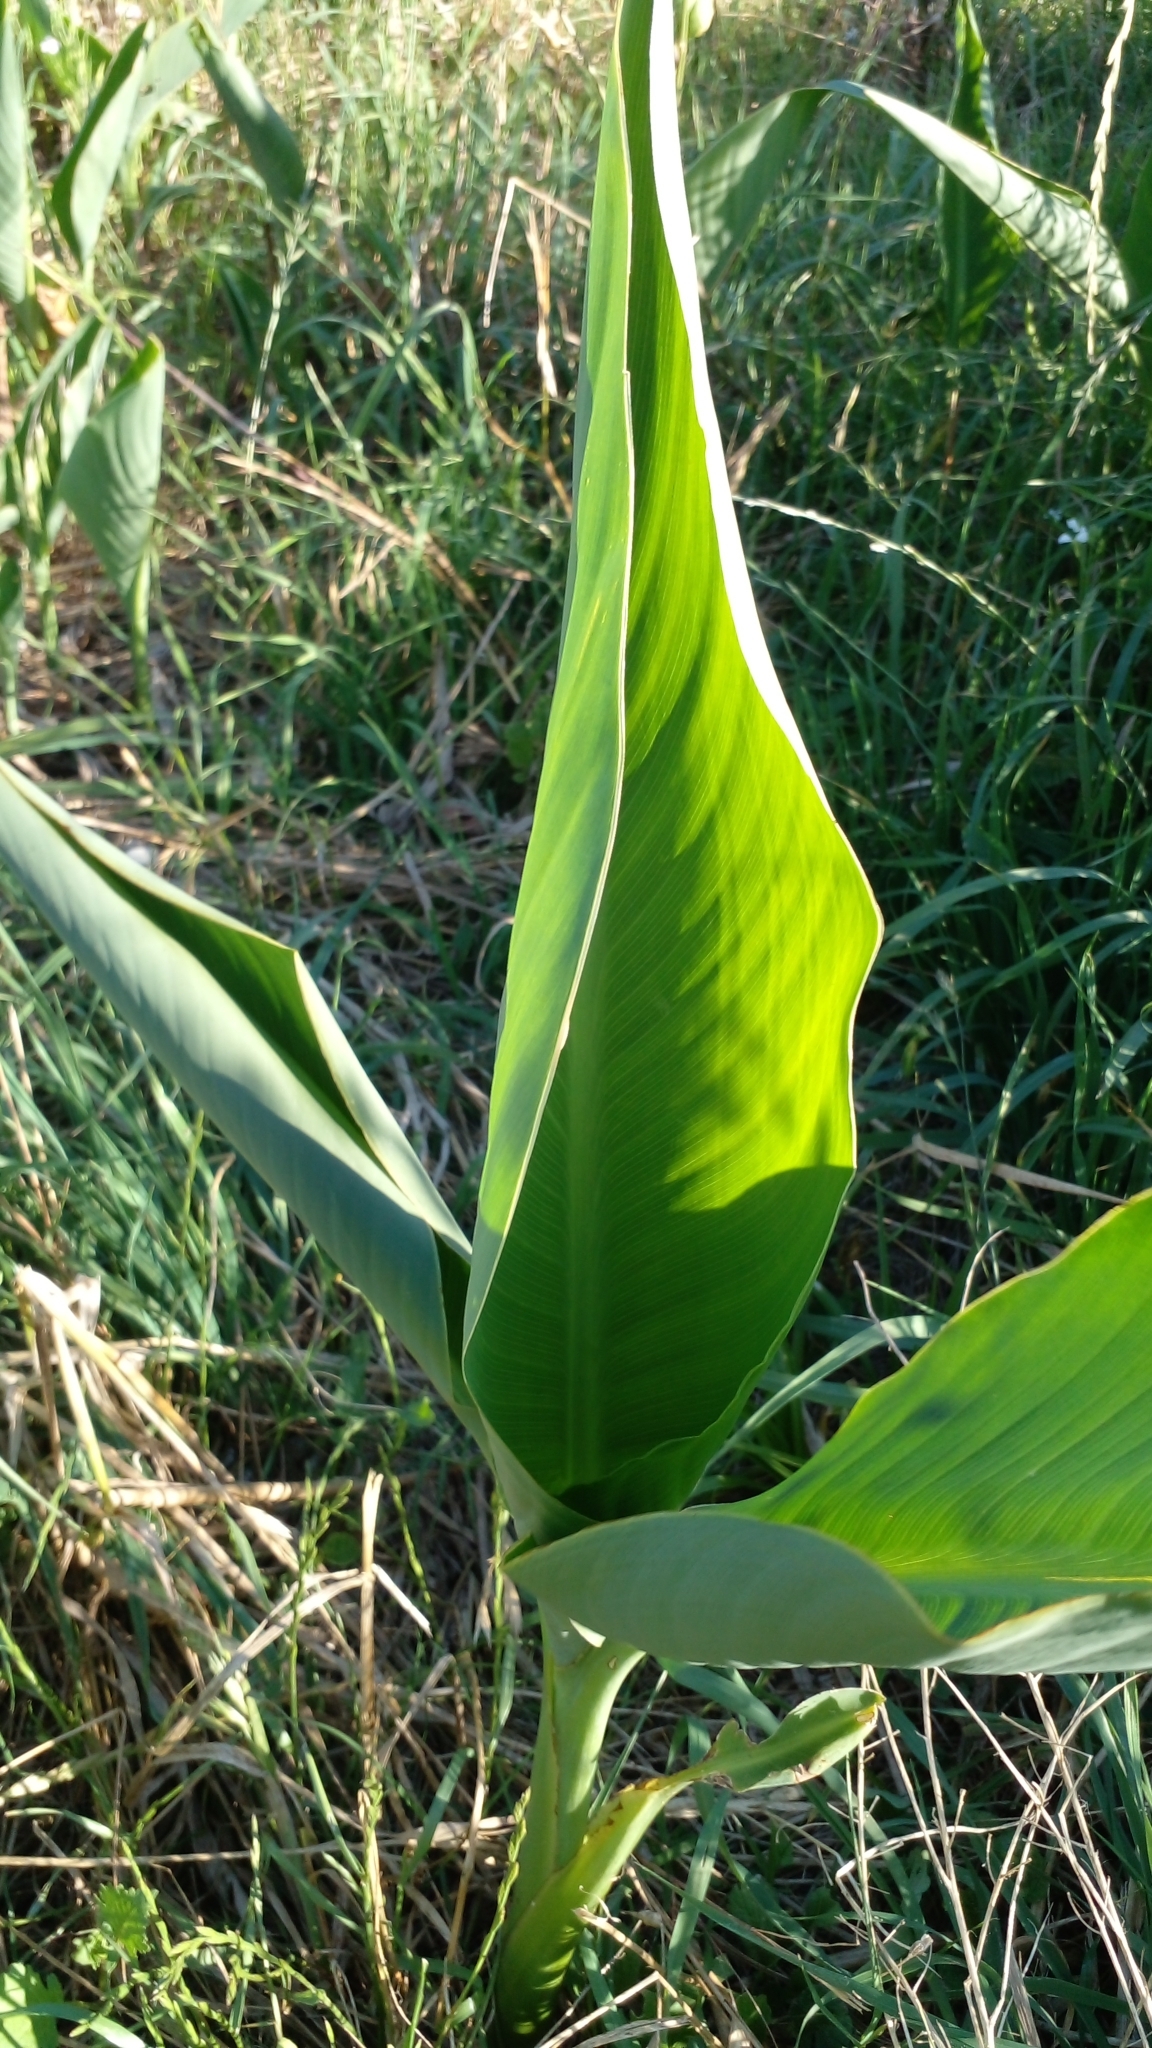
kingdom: Plantae
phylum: Tracheophyta
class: Liliopsida
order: Zingiberales
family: Cannaceae
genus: Canna
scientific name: Canna glauca
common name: Louisiana canna
